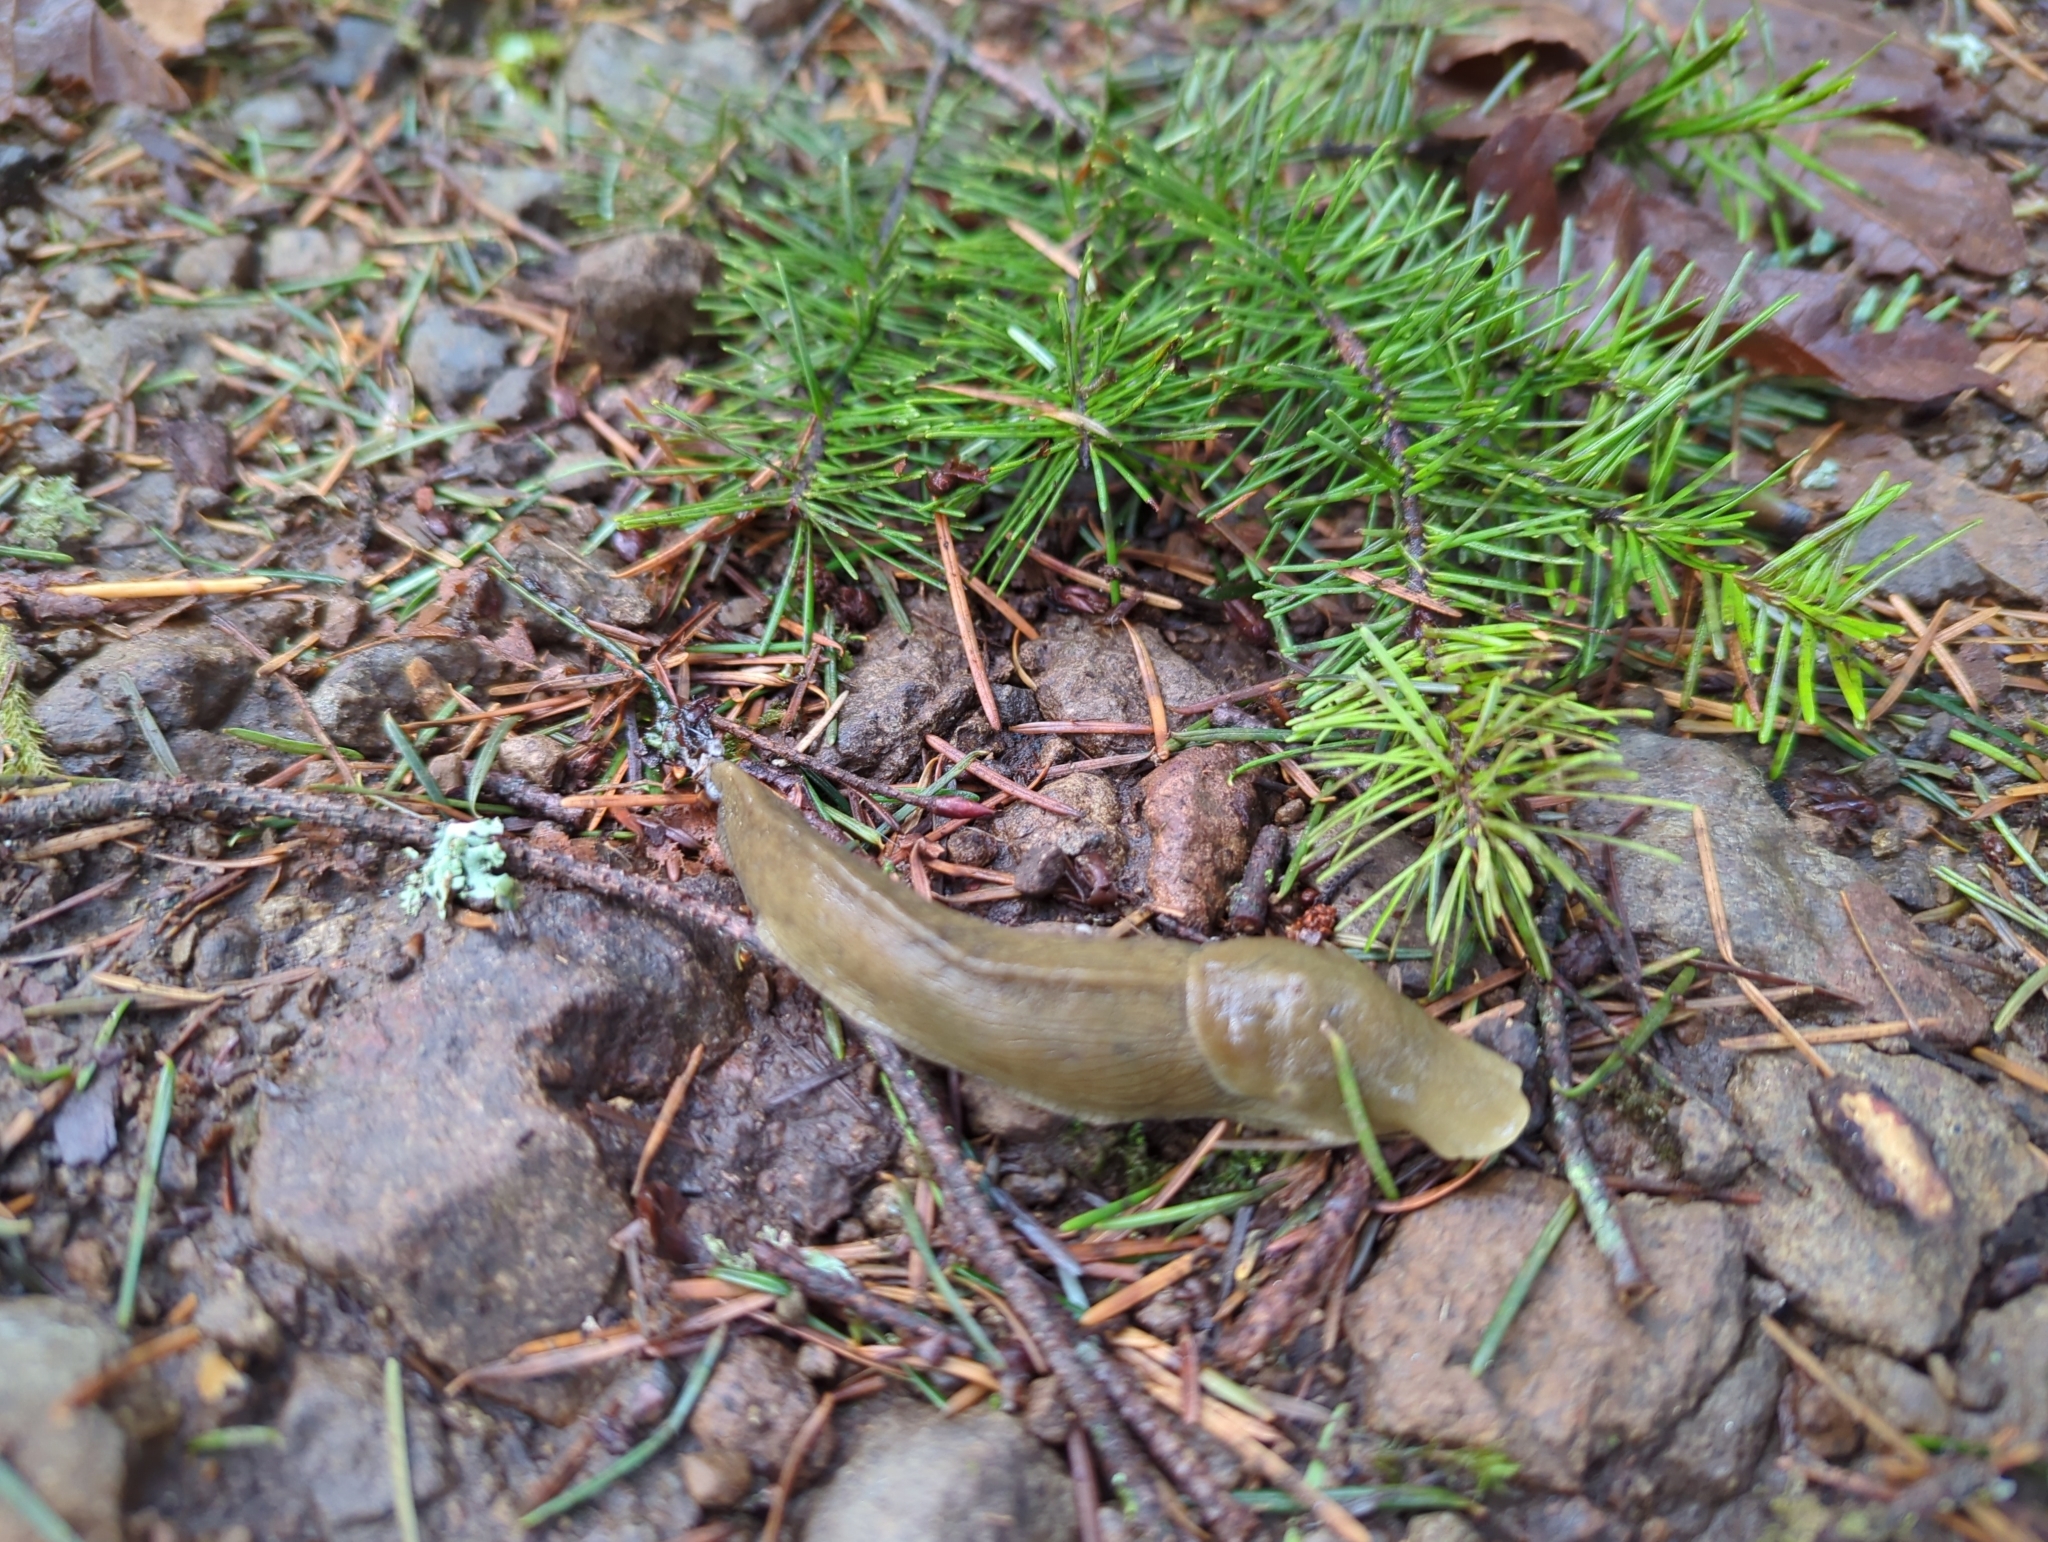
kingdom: Animalia
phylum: Mollusca
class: Gastropoda
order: Stylommatophora
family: Ariolimacidae
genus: Ariolimax
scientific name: Ariolimax columbianus
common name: Pacific banana slug
